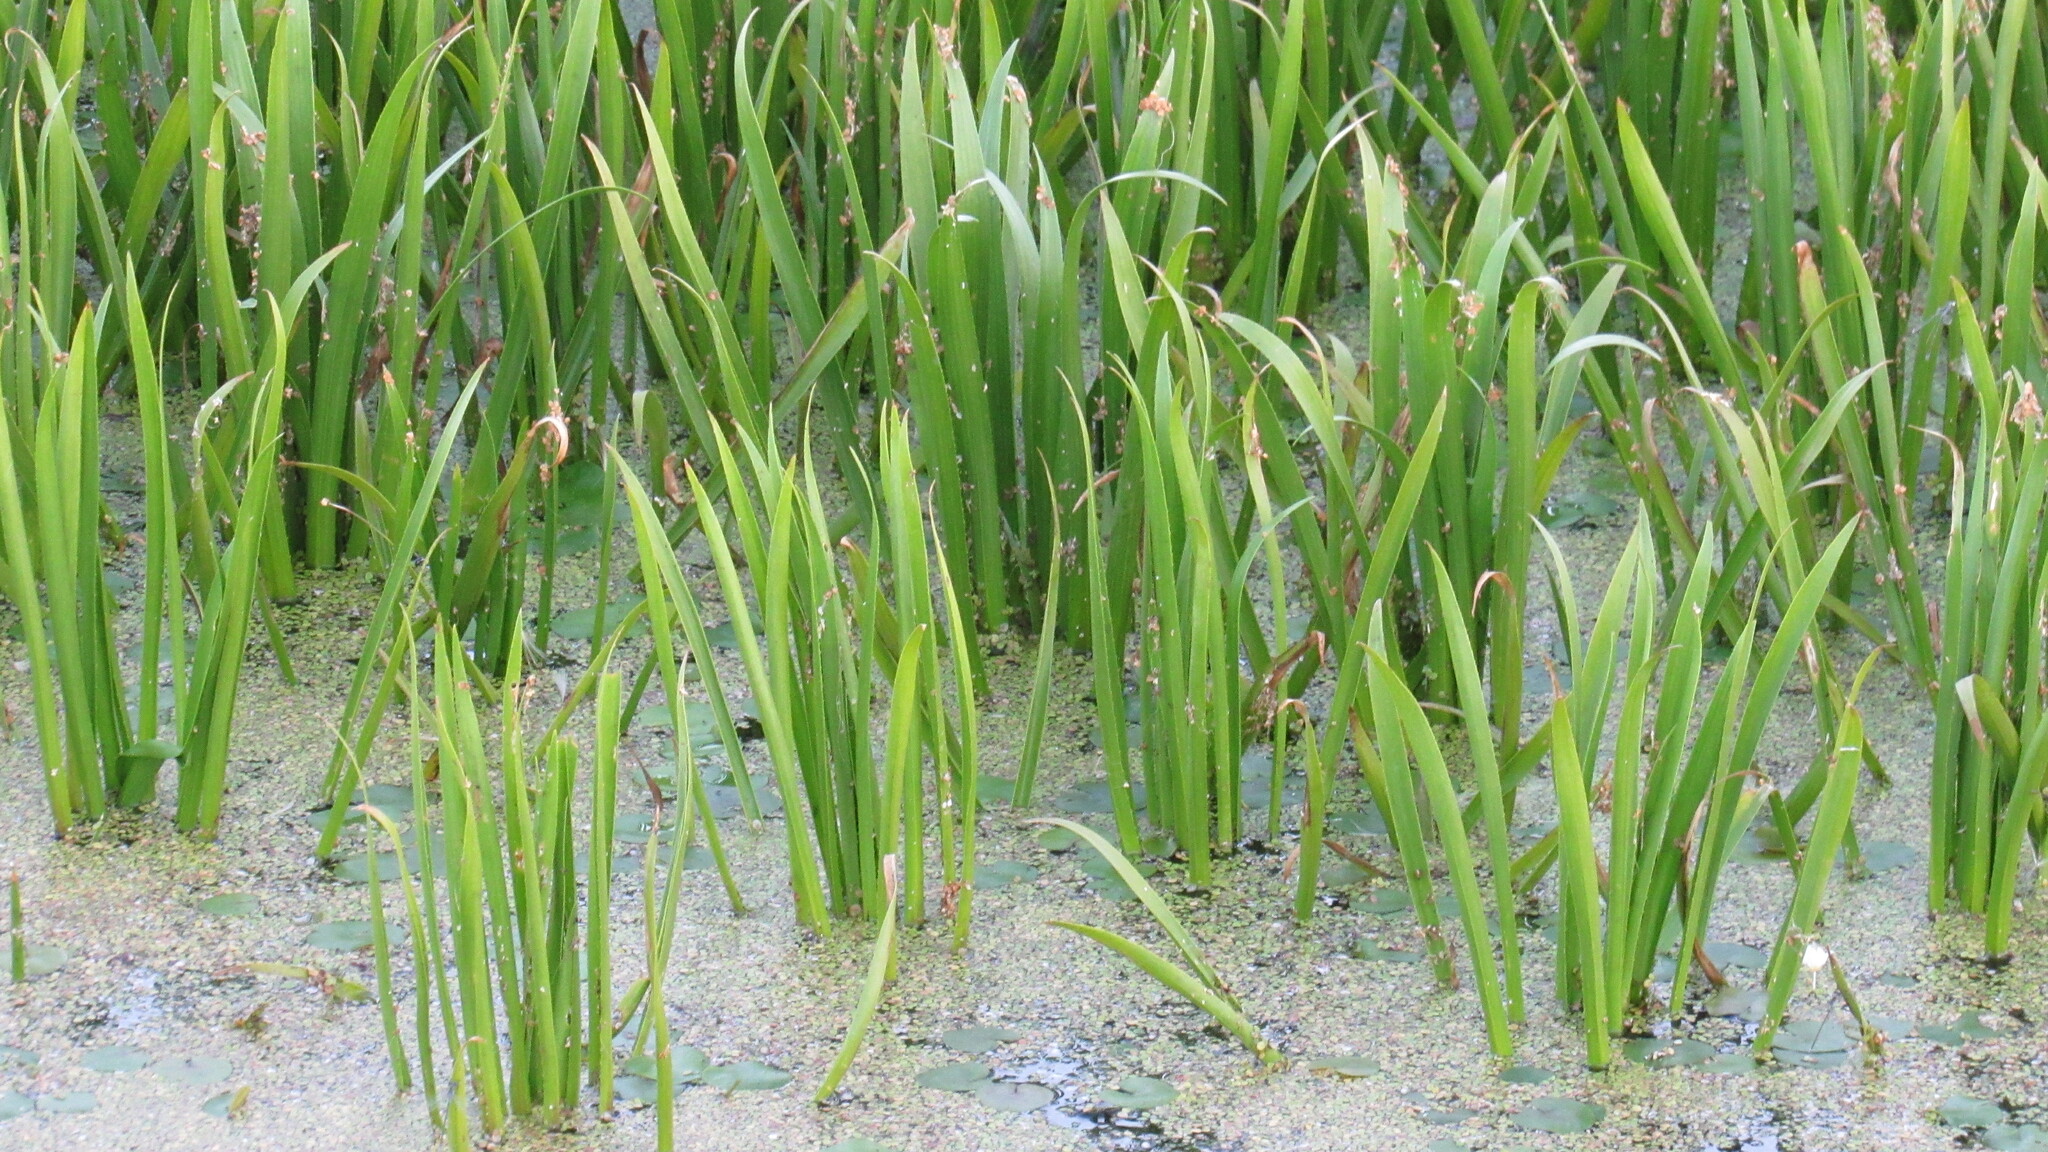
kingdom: Plantae
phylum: Tracheophyta
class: Liliopsida
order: Alismatales
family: Hydrocharitaceae
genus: Stratiotes
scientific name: Stratiotes aloides
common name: Water-soldier
